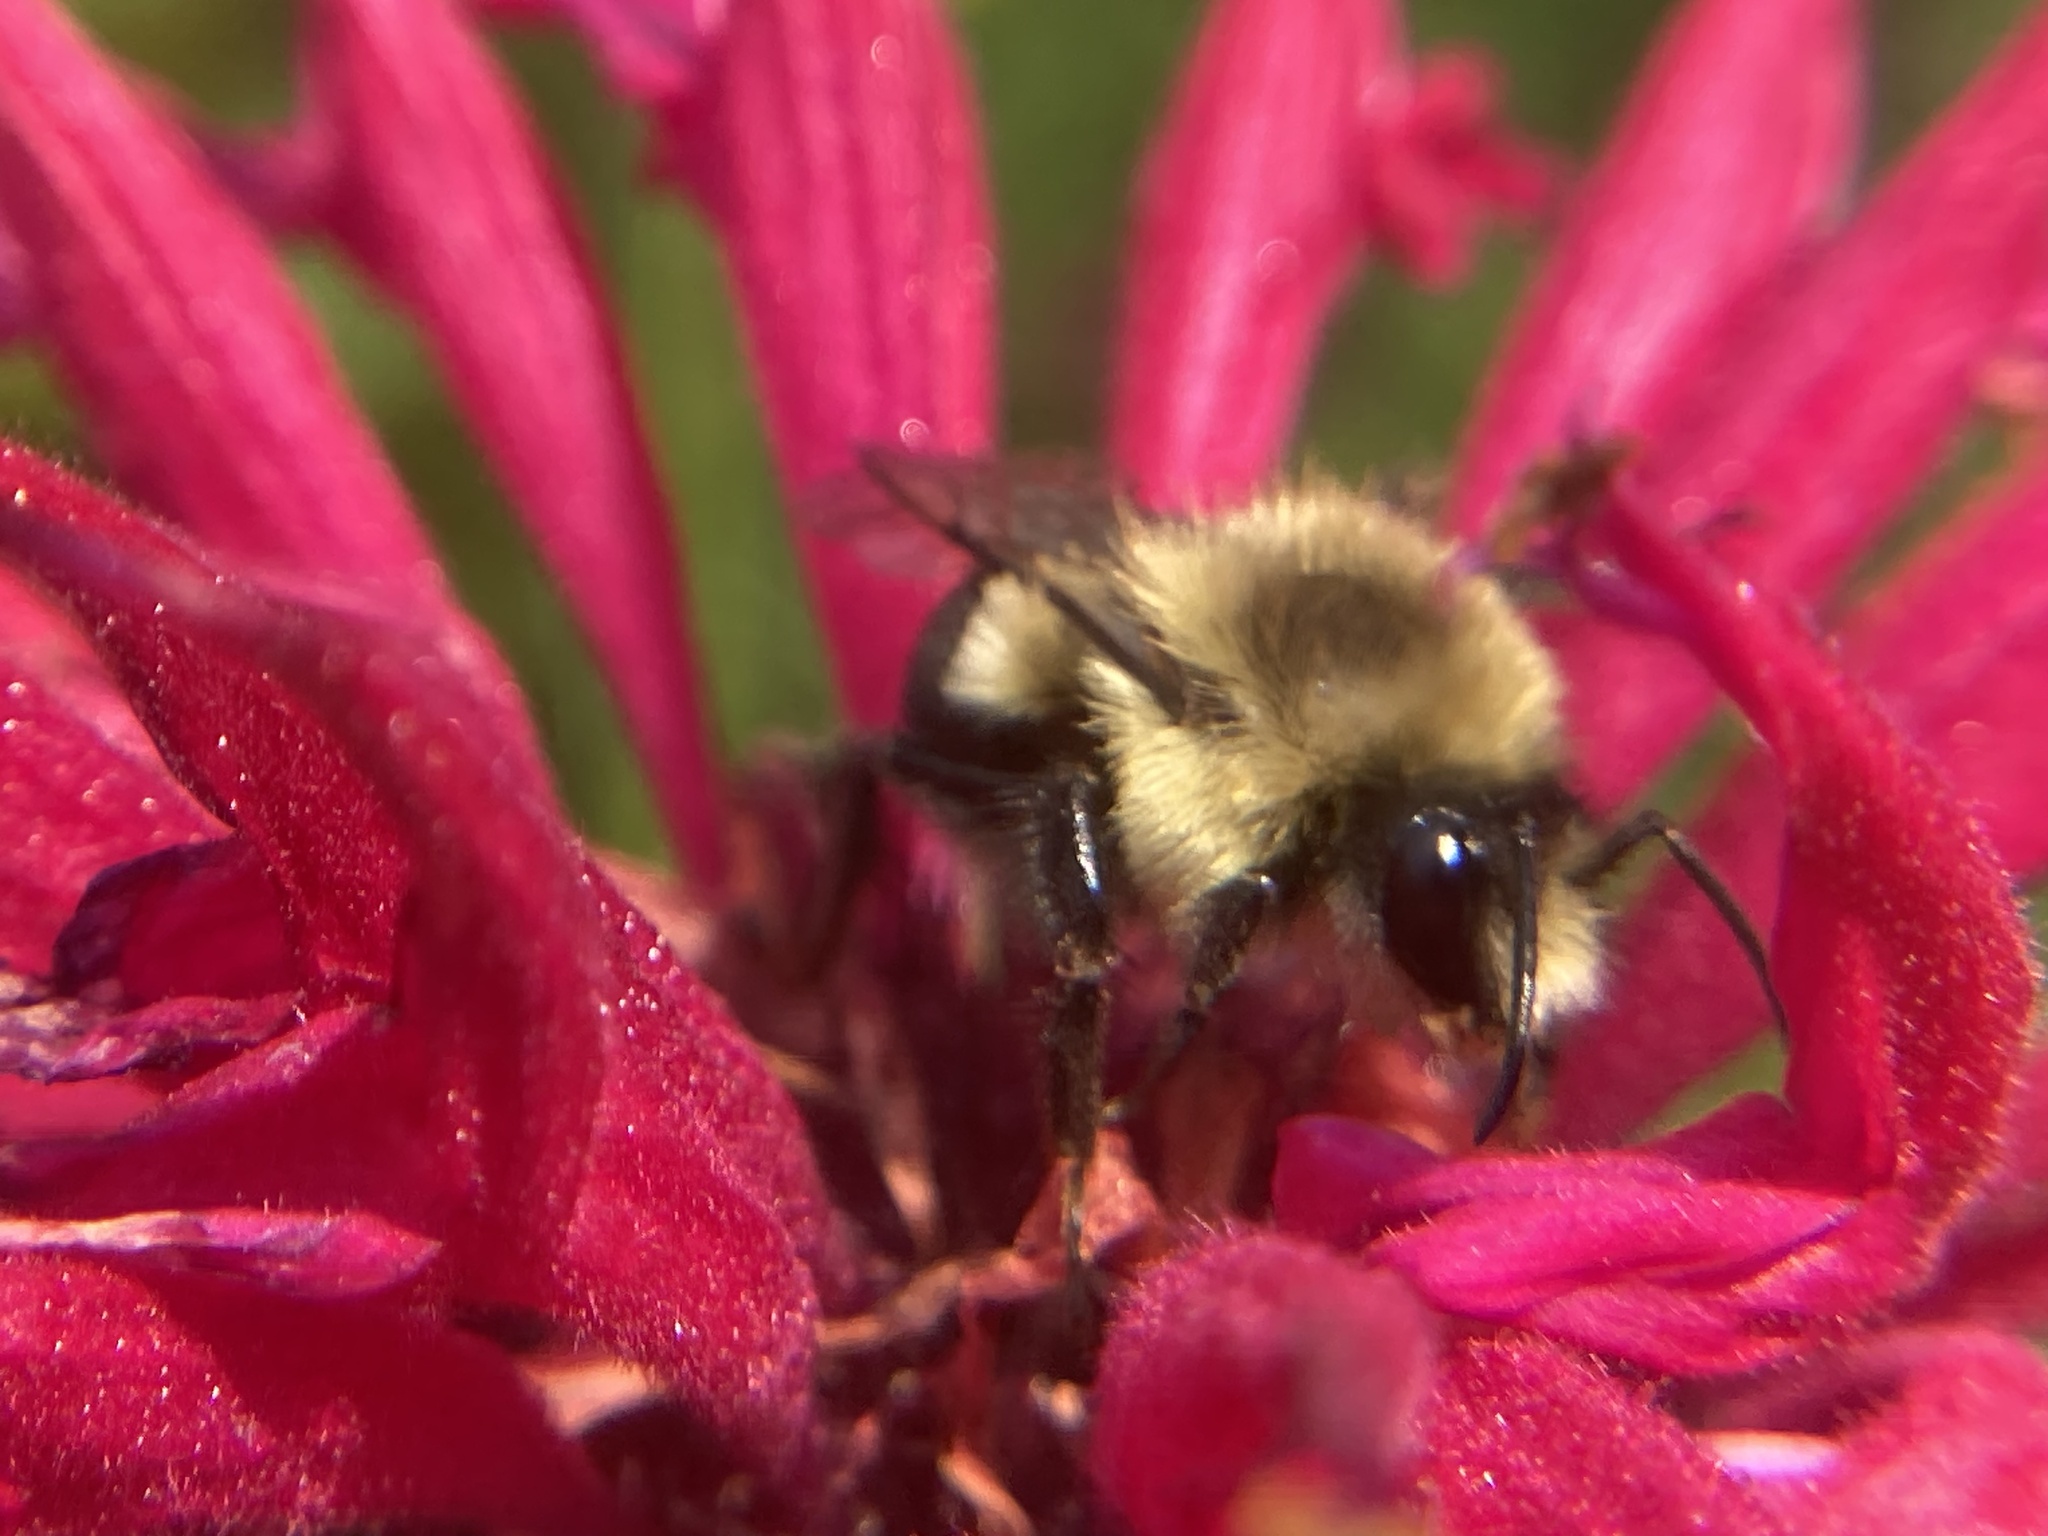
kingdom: Animalia
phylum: Arthropoda
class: Insecta
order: Hymenoptera
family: Apidae
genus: Bombus
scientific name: Bombus impatiens
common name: Common eastern bumble bee
